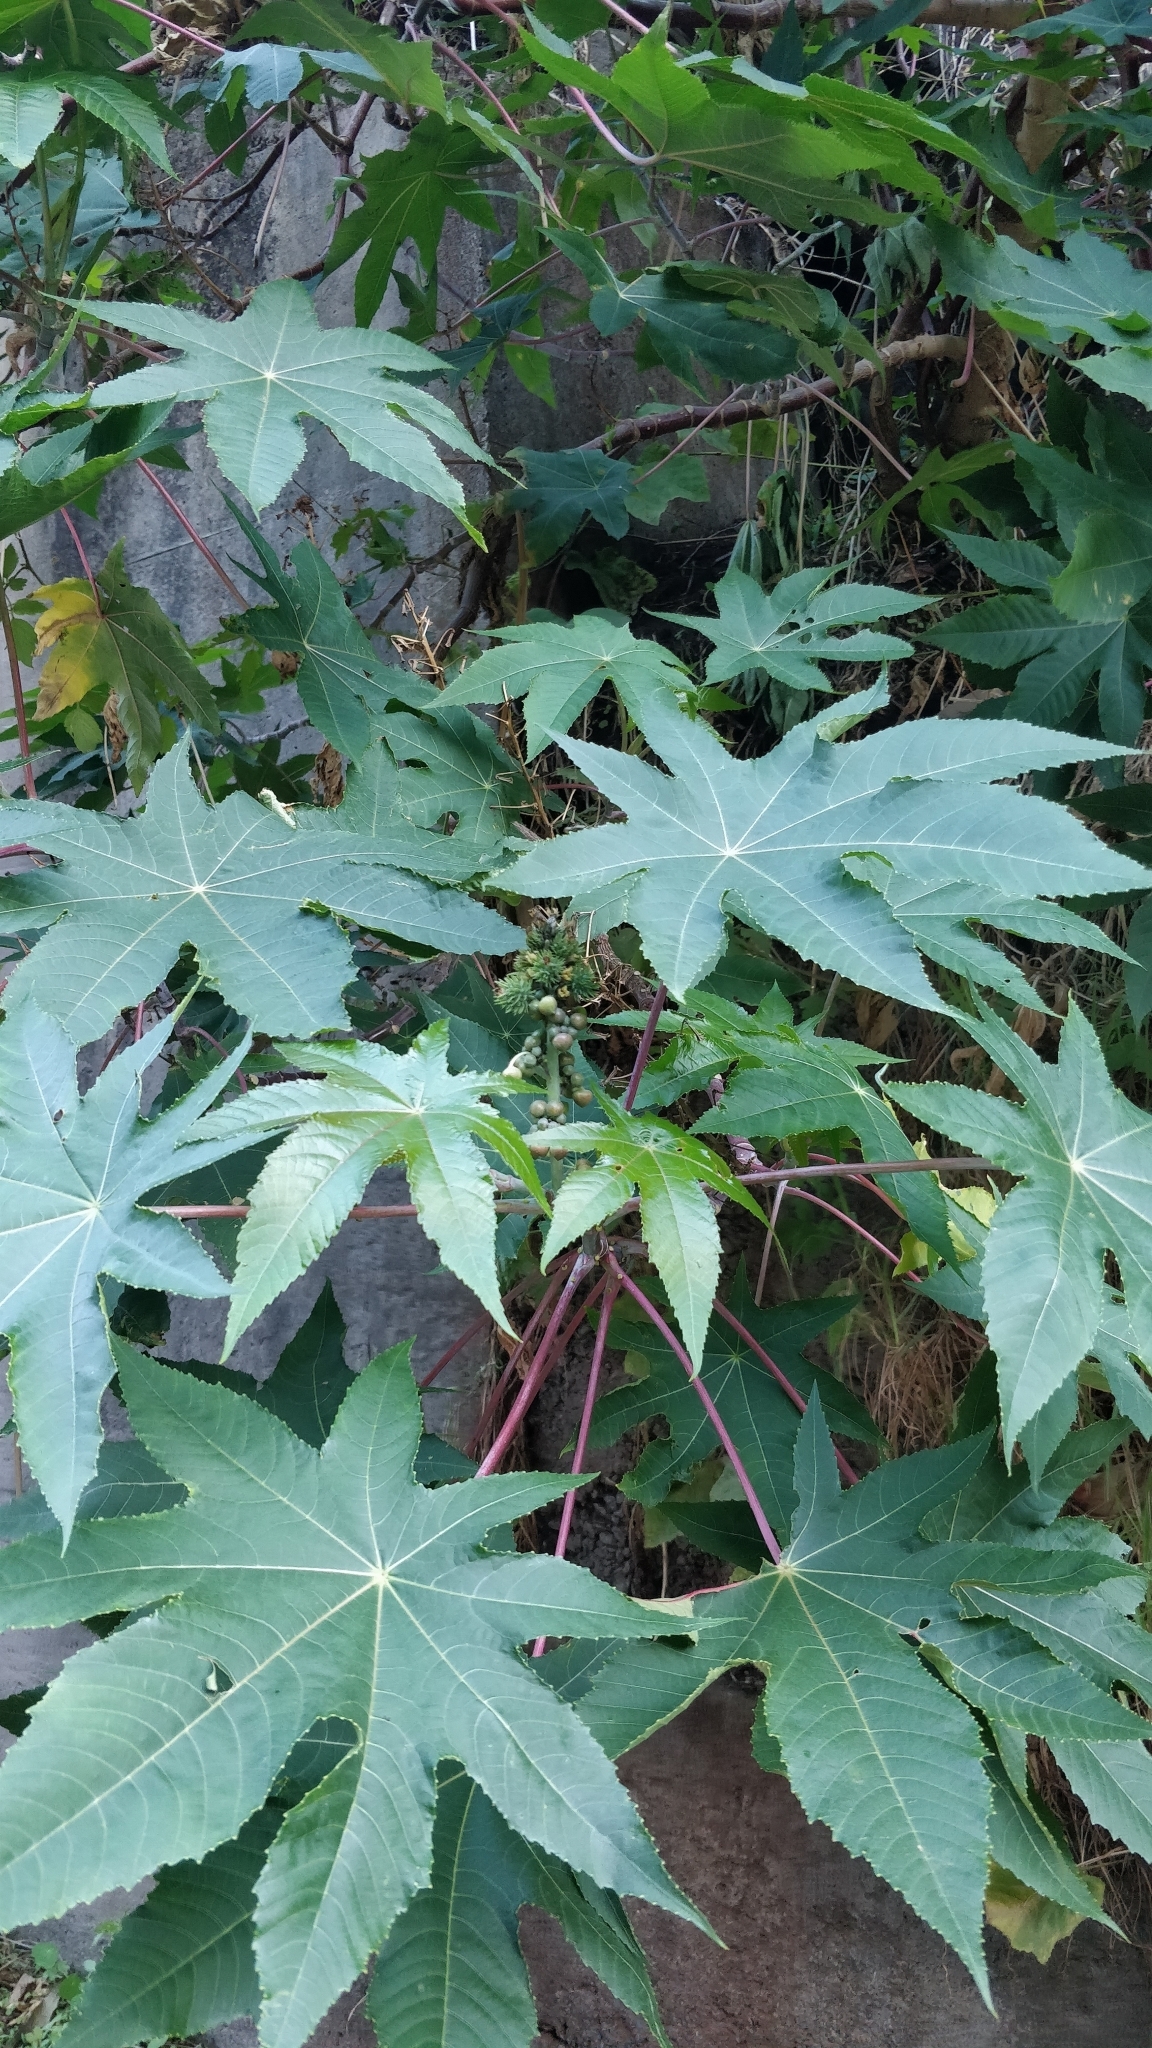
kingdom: Plantae
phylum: Tracheophyta
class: Magnoliopsida
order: Malpighiales
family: Euphorbiaceae
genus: Ricinus
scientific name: Ricinus communis
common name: Castor-oil-plant
